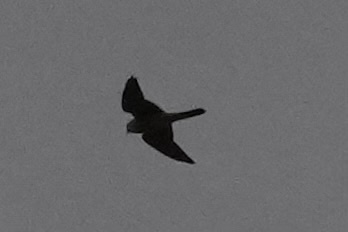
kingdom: Animalia
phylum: Chordata
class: Aves
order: Accipitriformes
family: Accipitridae
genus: Ictinia
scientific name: Ictinia mississippiensis
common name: Mississippi kite
